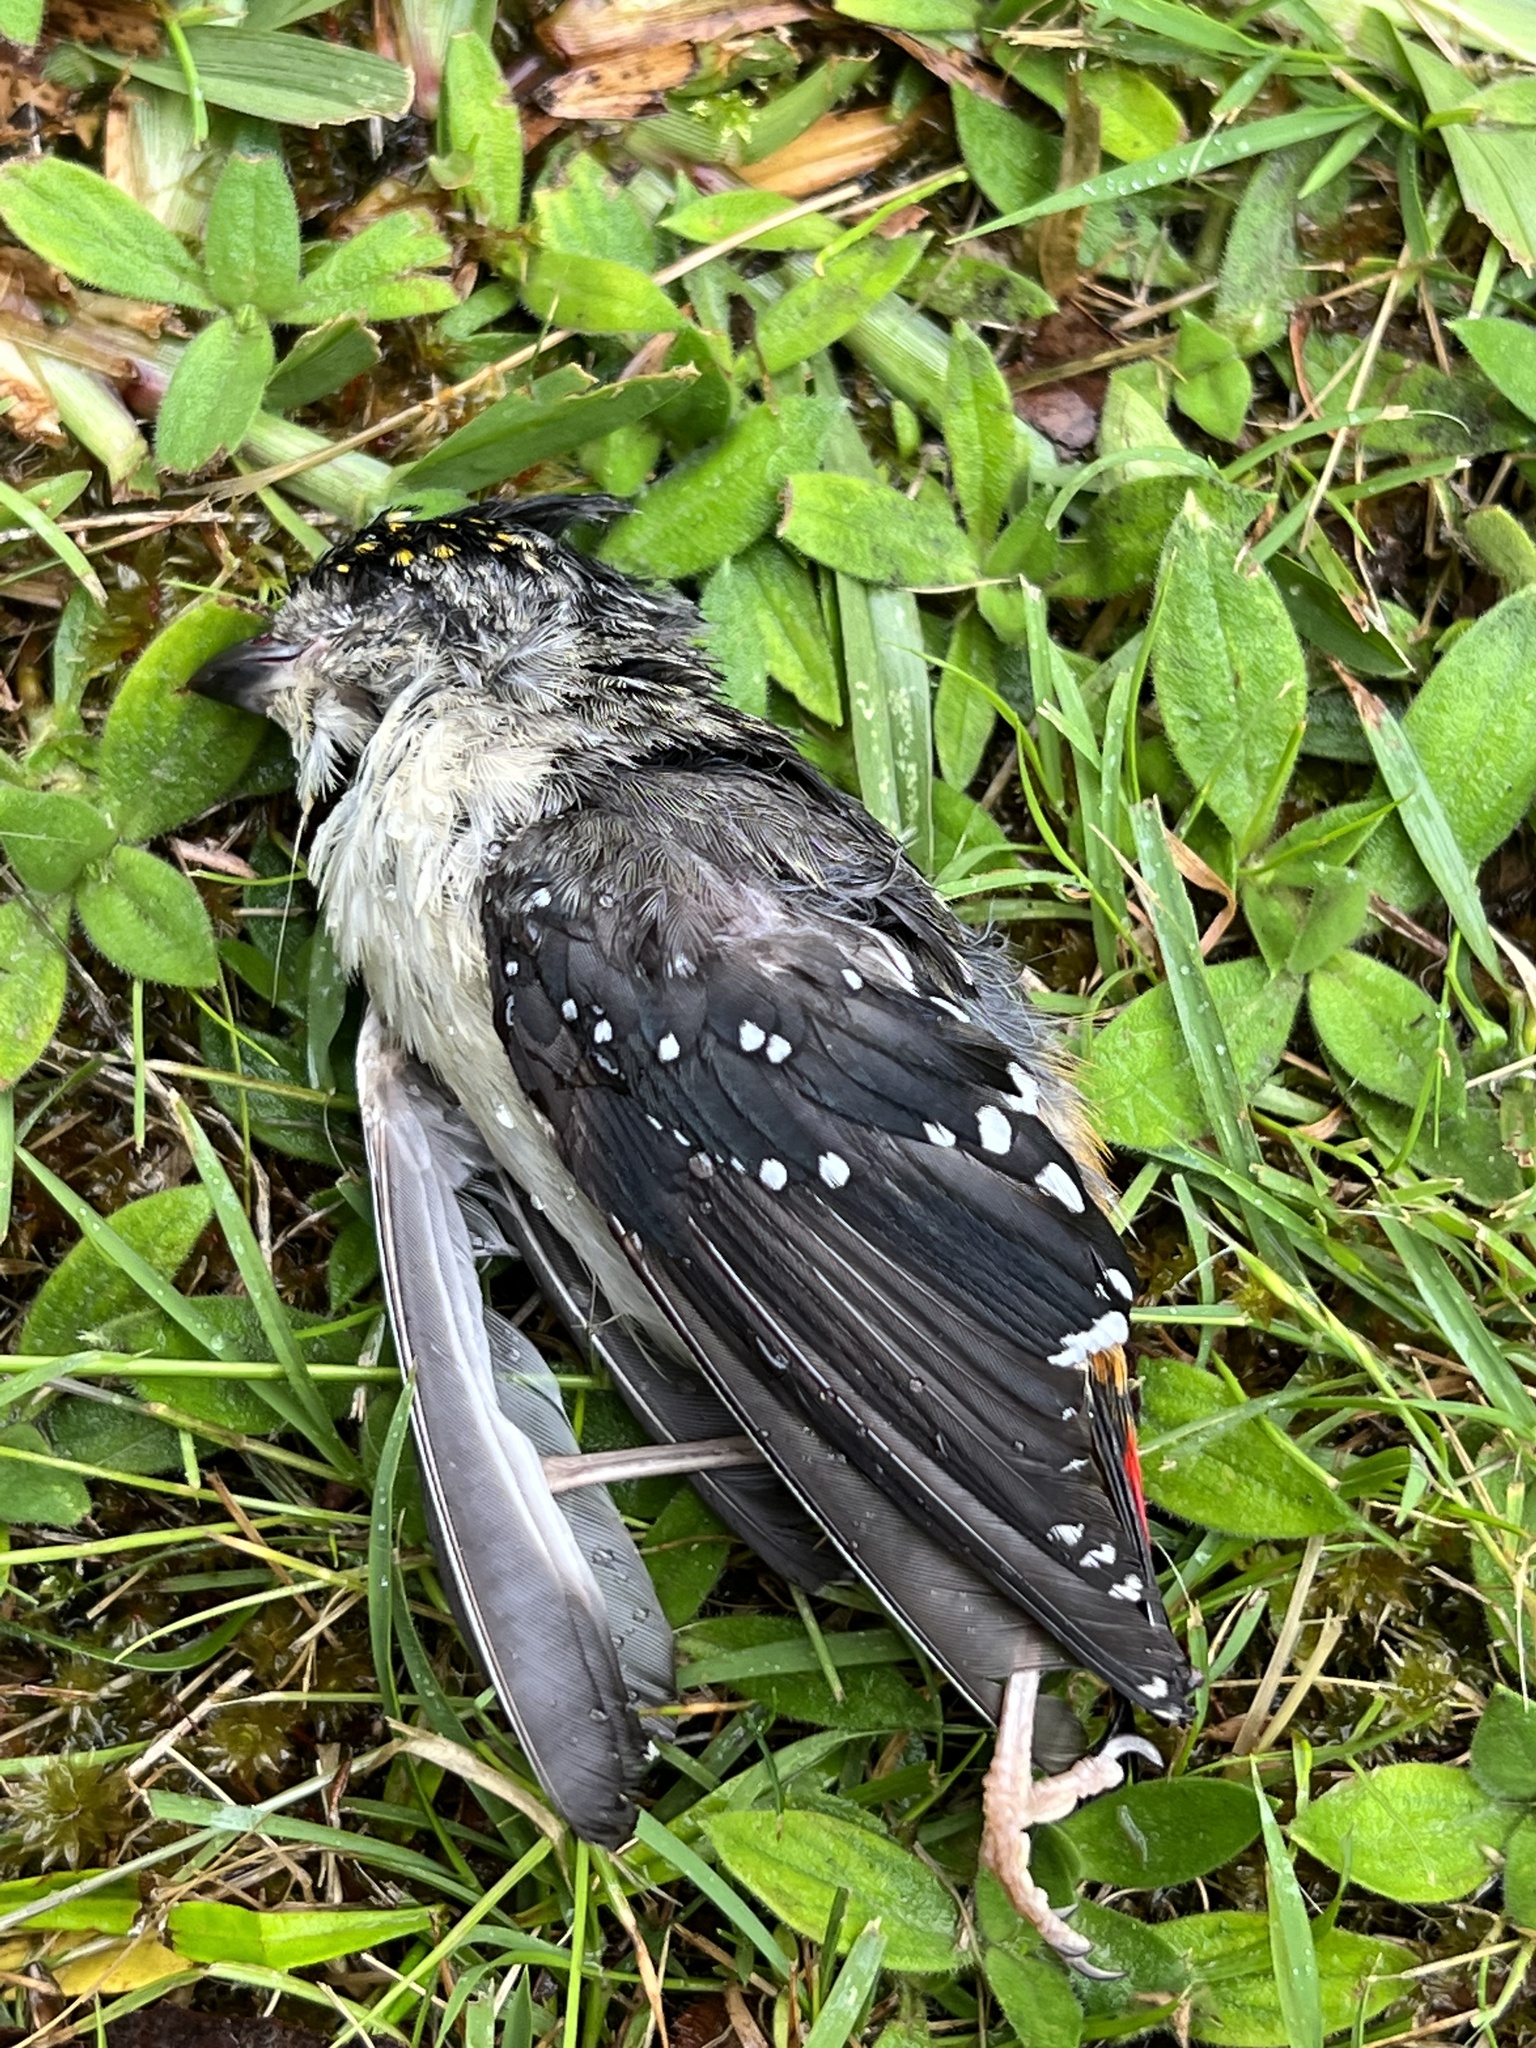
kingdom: Animalia
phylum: Chordata
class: Aves
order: Passeriformes
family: Pardalotidae
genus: Pardalotus
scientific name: Pardalotus punctatus
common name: Spotted pardalote
